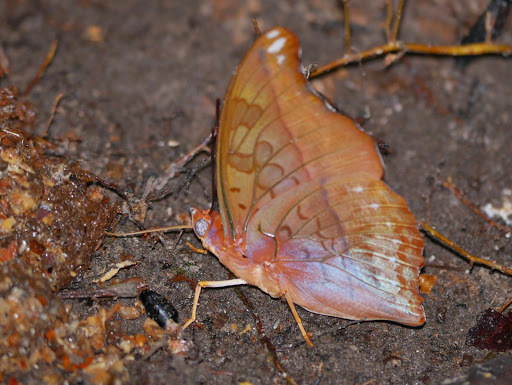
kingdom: Animalia
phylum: Arthropoda
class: Insecta
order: Lepidoptera
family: Nymphalidae
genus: Charaxes
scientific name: Charaxes nichetes
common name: Manx charaxes
